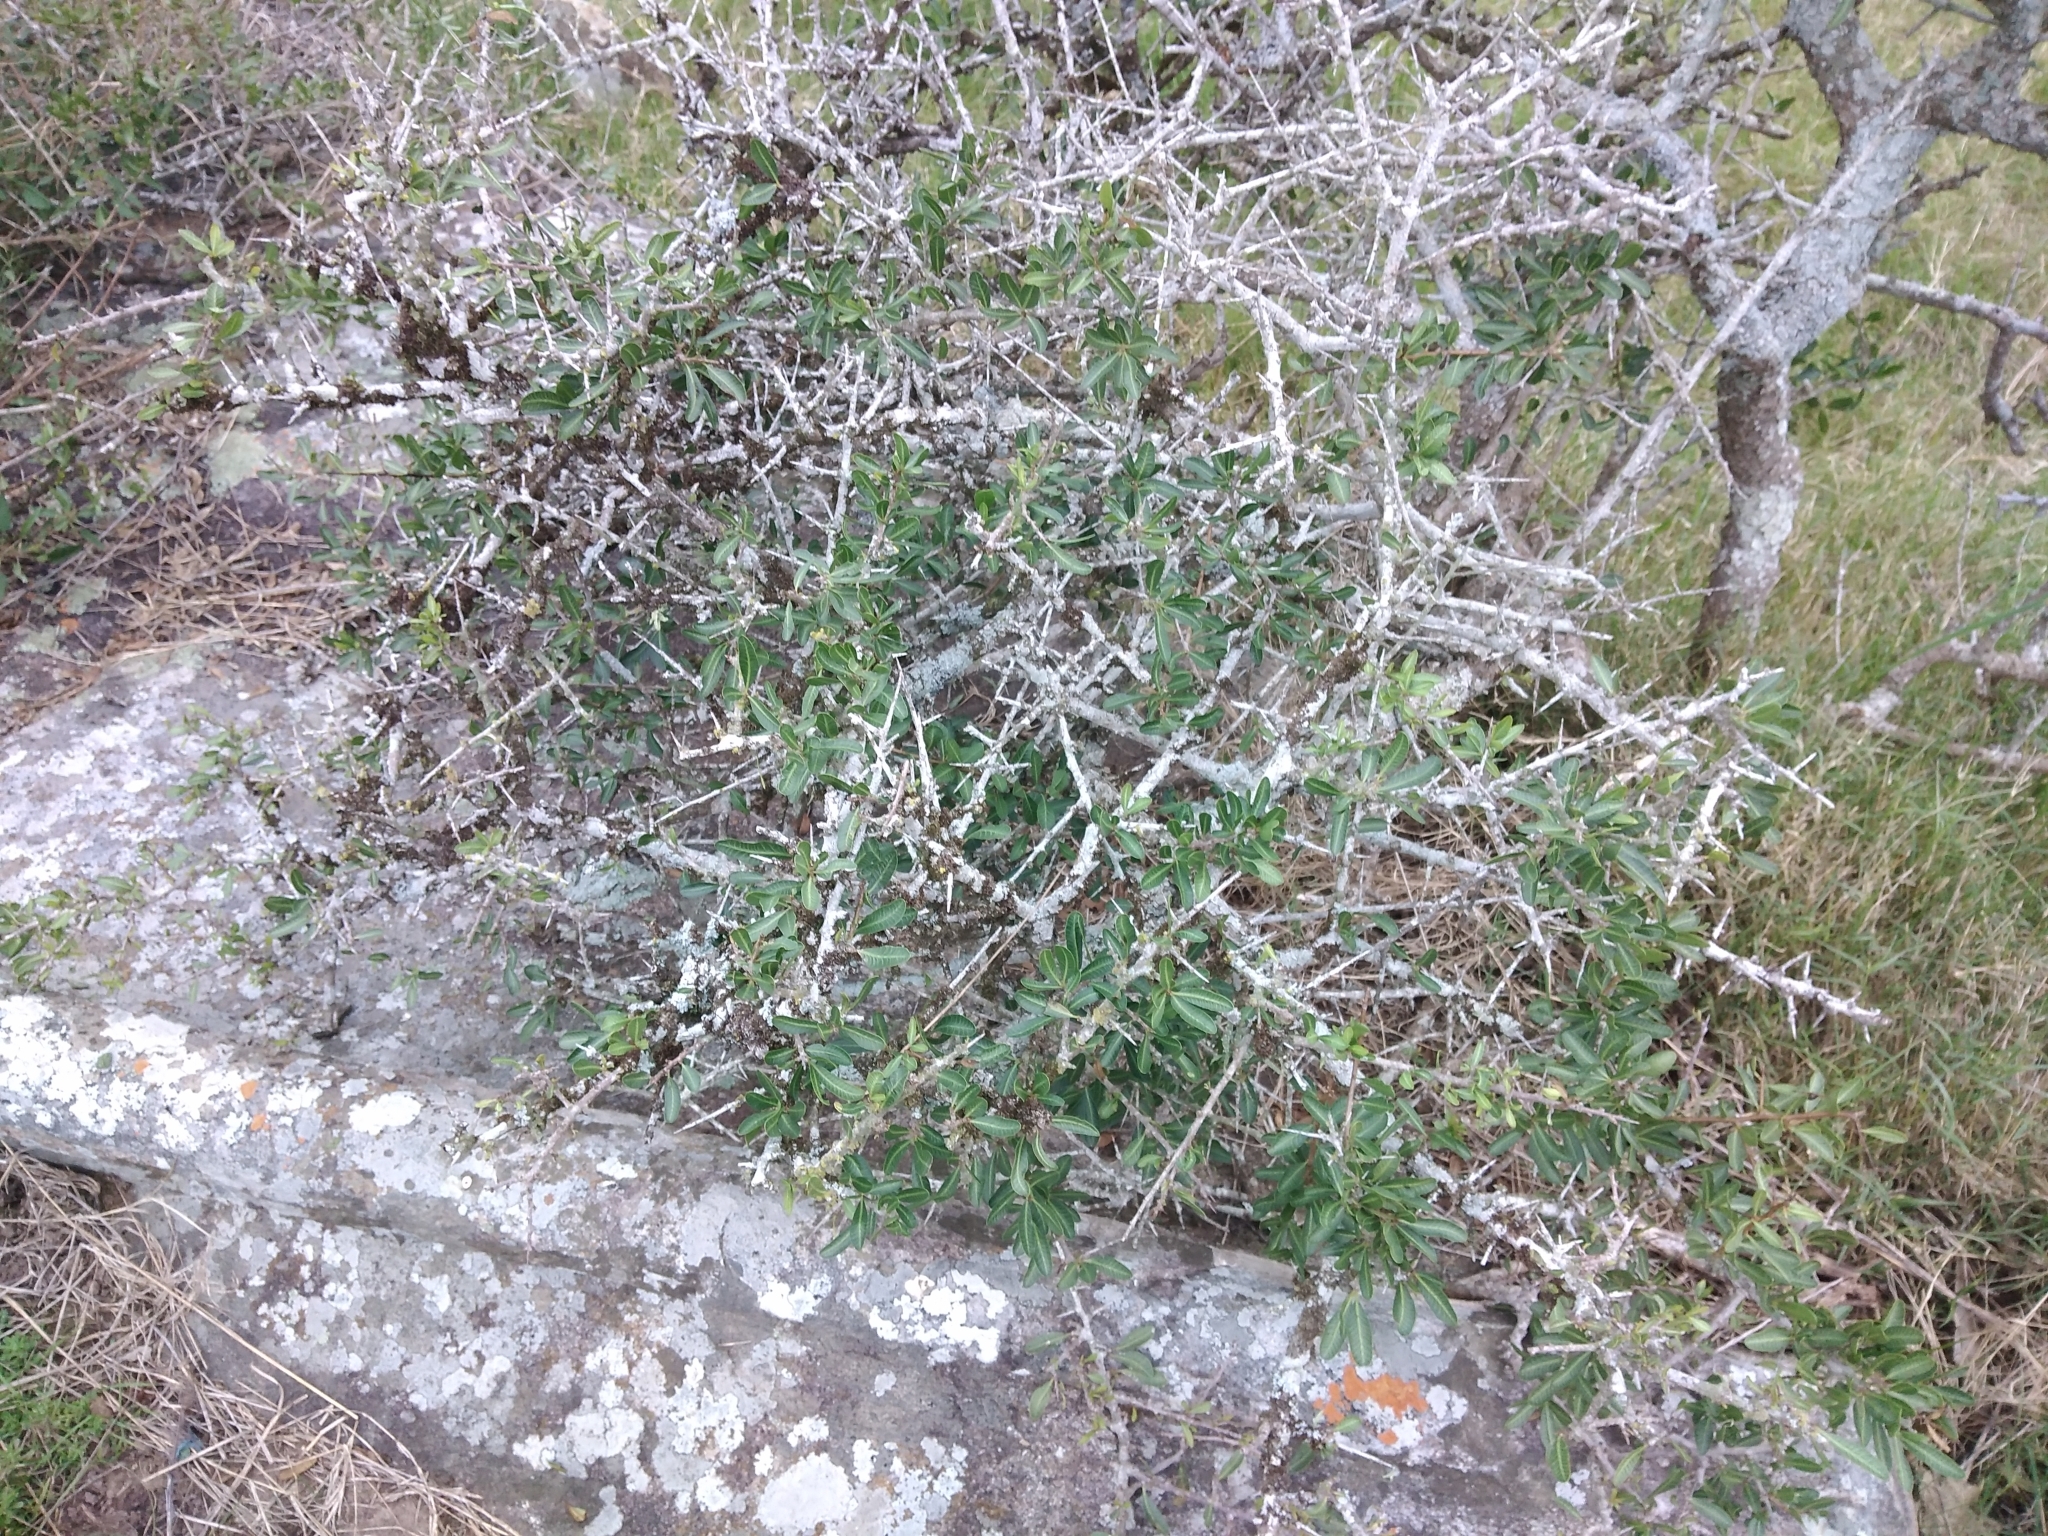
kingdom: Plantae
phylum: Tracheophyta
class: Magnoliopsida
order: Sapindales
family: Anacardiaceae
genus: Schinus
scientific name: Schinus longifolia
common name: Longleaf peppertree
